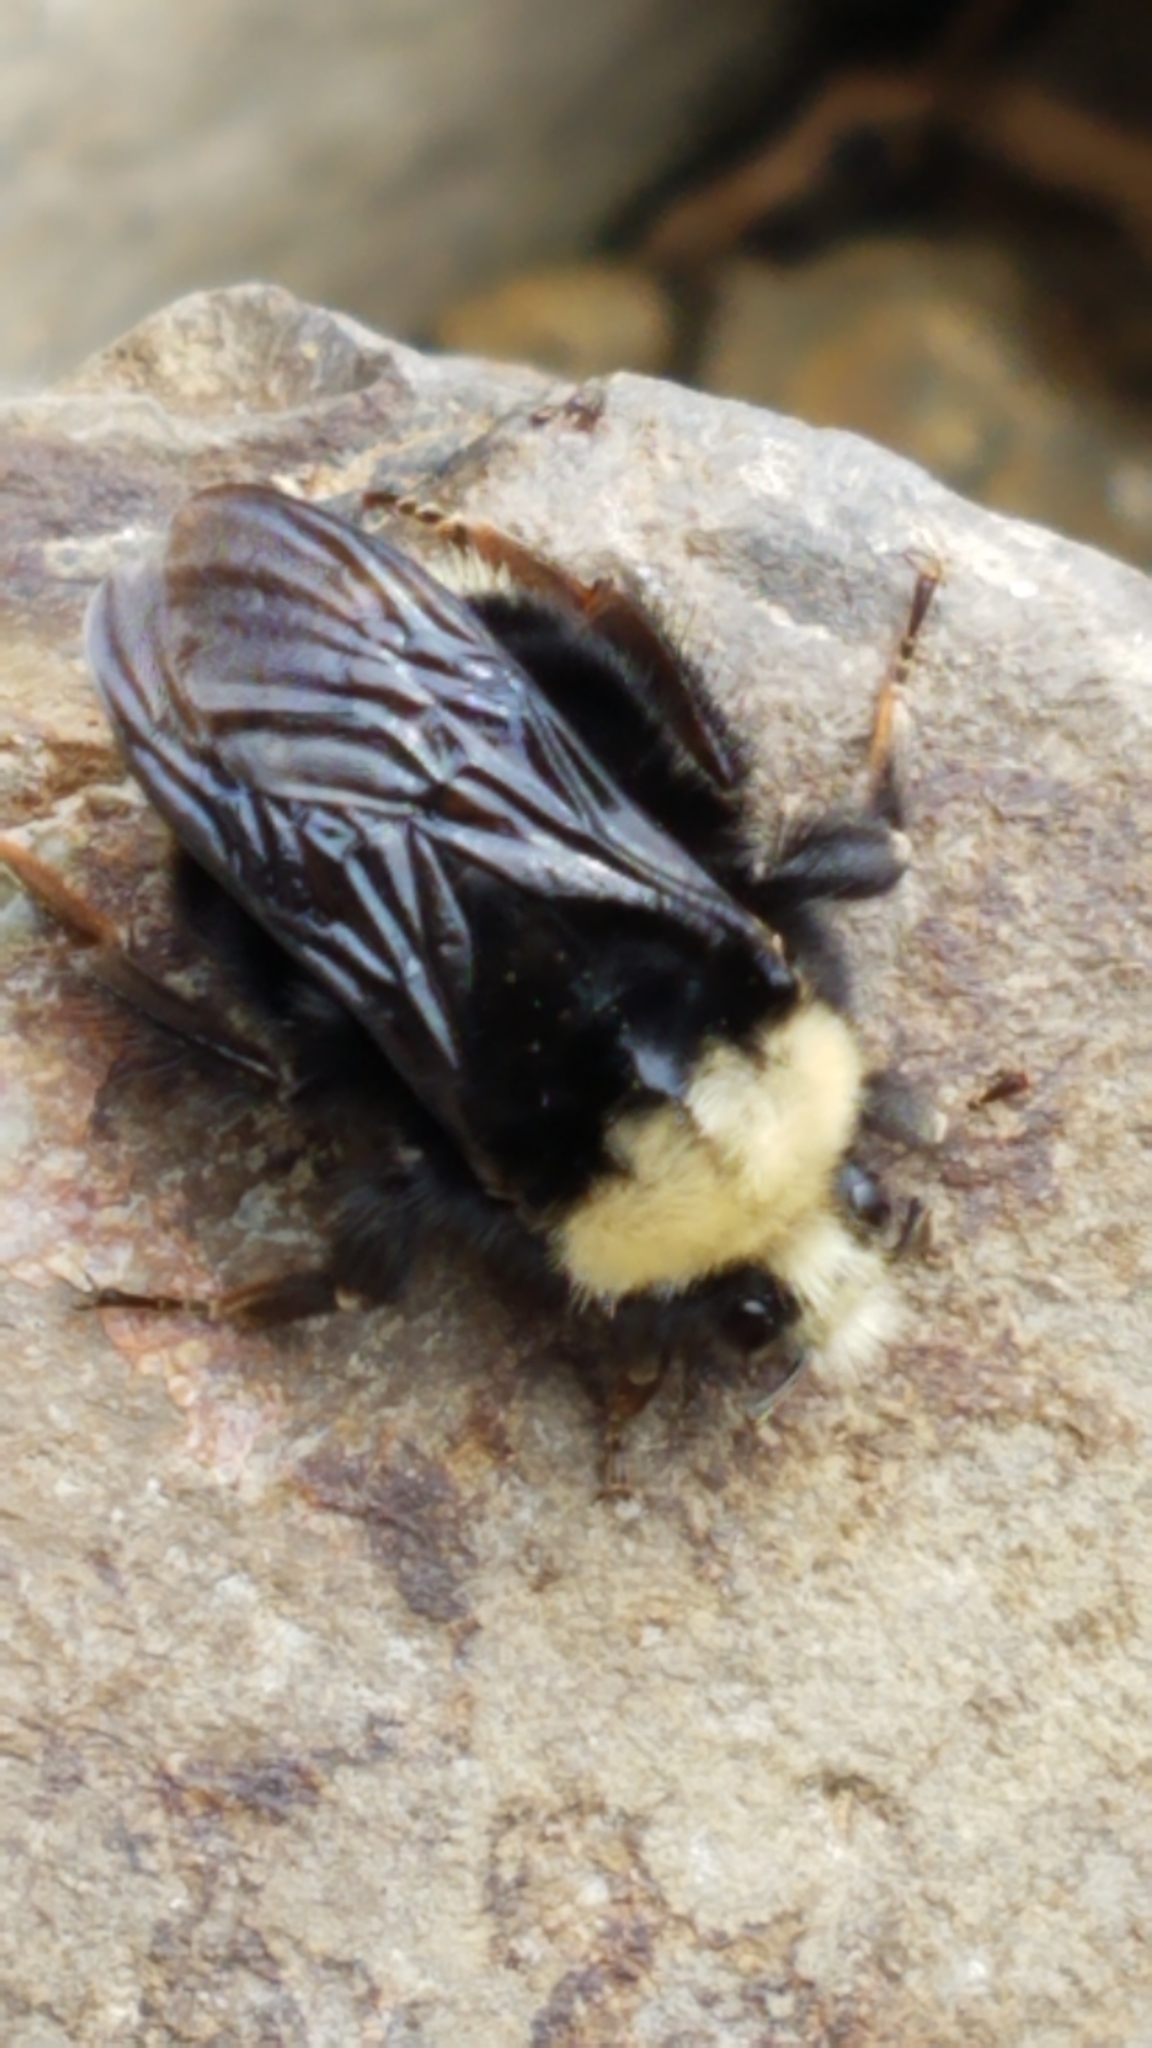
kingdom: Animalia
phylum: Arthropoda
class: Insecta
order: Hymenoptera
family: Apidae
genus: Bombus
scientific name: Bombus vosnesenskii
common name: Vosnesensky bumble bee
